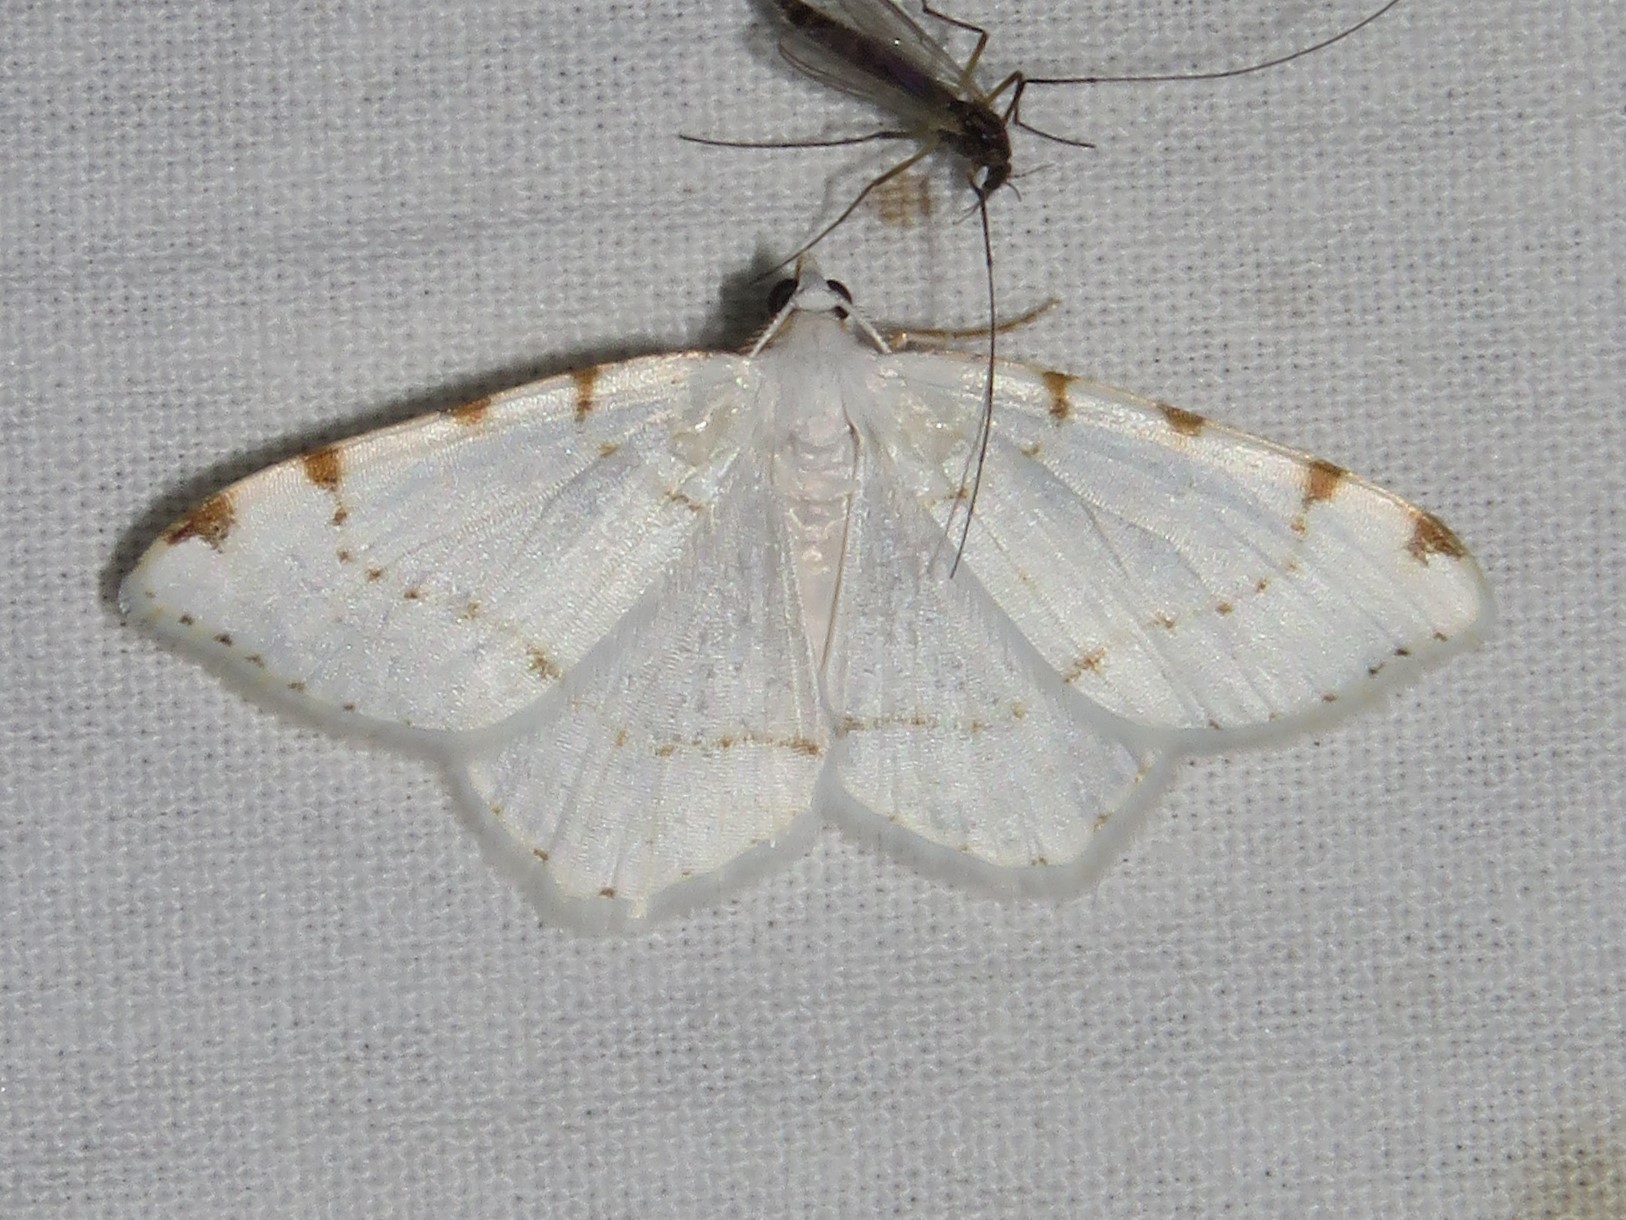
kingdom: Animalia
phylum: Arthropoda
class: Insecta
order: Lepidoptera
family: Geometridae
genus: Macaria
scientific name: Macaria pustularia
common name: Lesser maple spanworm moth
